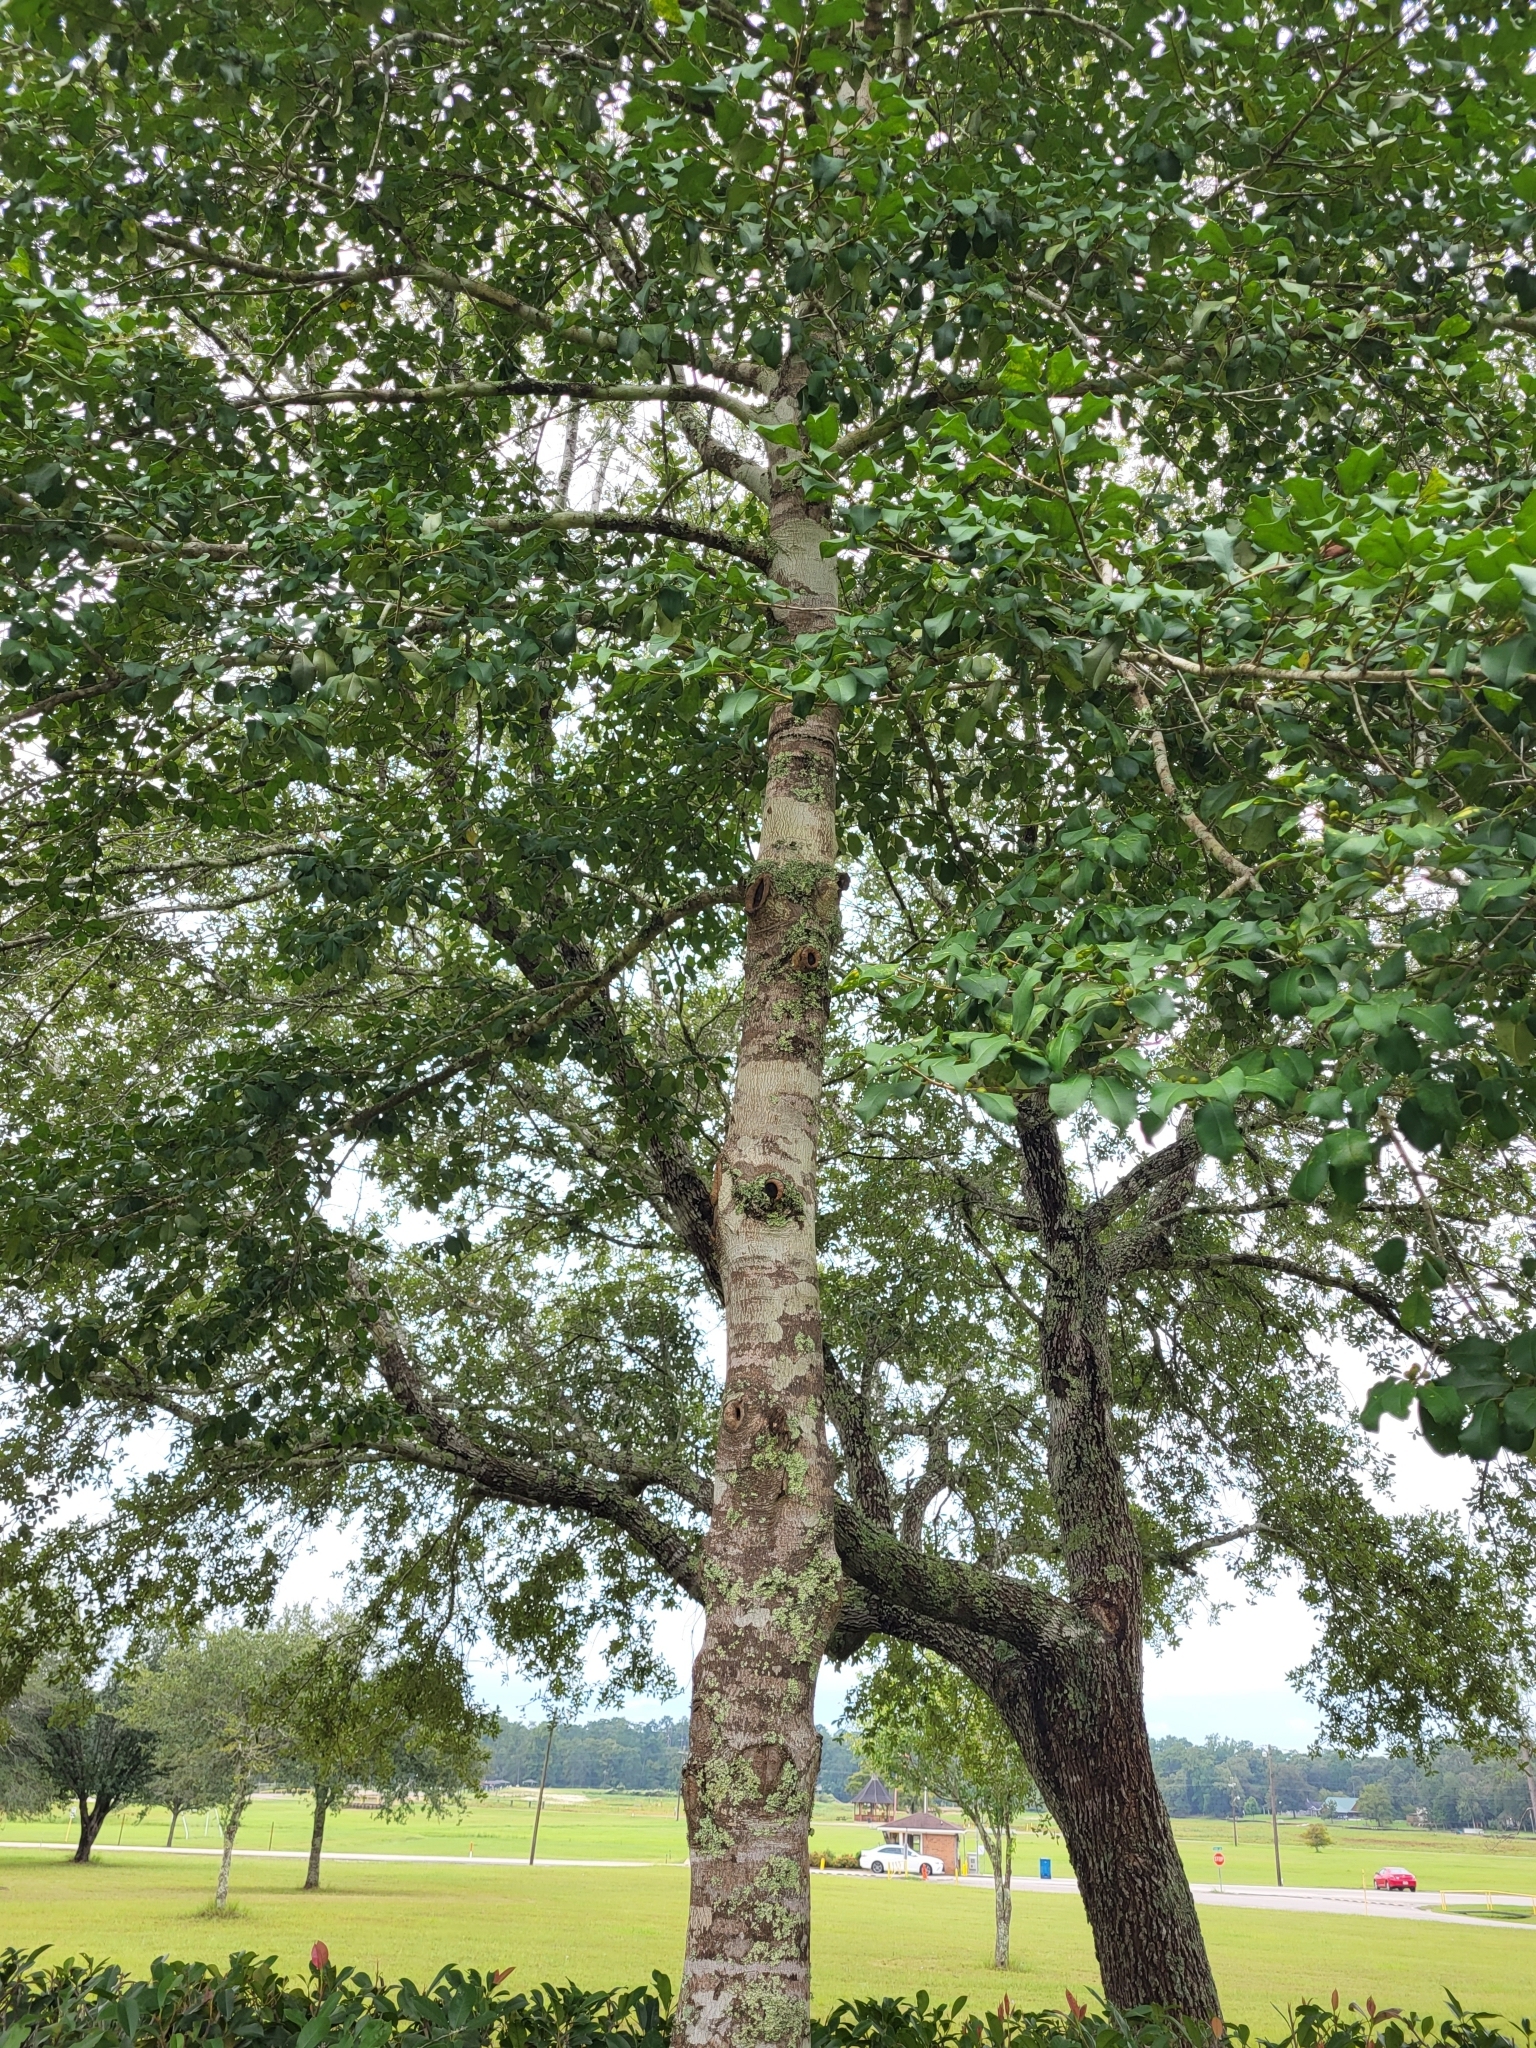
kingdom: Plantae
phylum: Tracheophyta
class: Magnoliopsida
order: Aquifoliales
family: Aquifoliaceae
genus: Ilex
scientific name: Ilex opaca
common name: American holly
